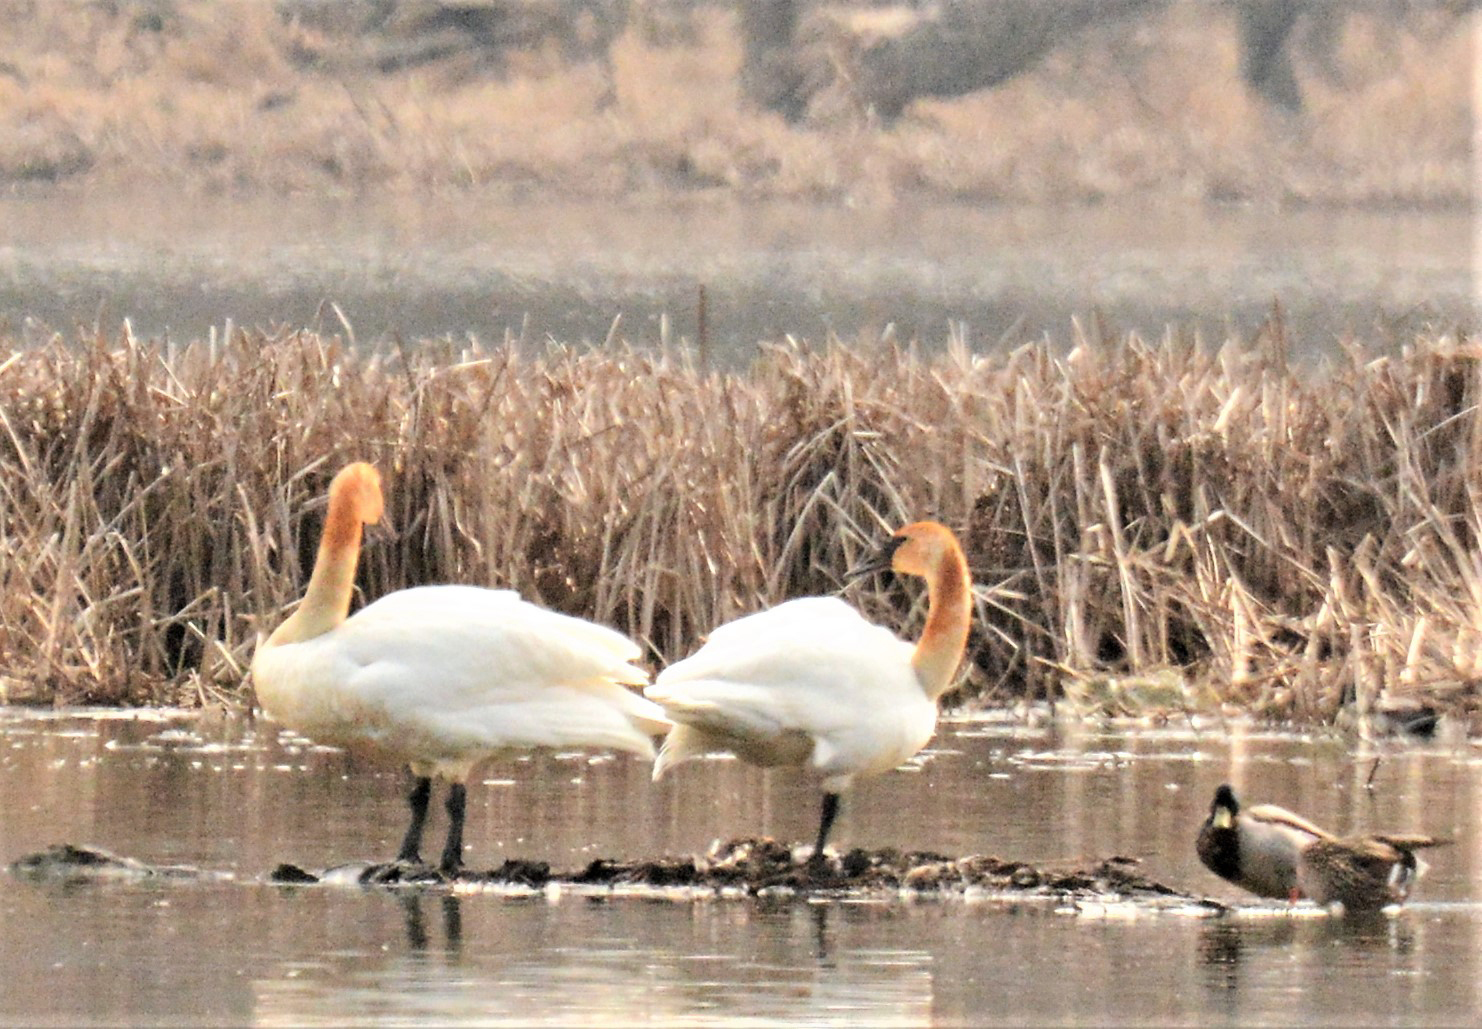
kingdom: Animalia
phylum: Chordata
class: Aves
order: Anseriformes
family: Anatidae
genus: Cygnus
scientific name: Cygnus buccinator
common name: Trumpeter swan
